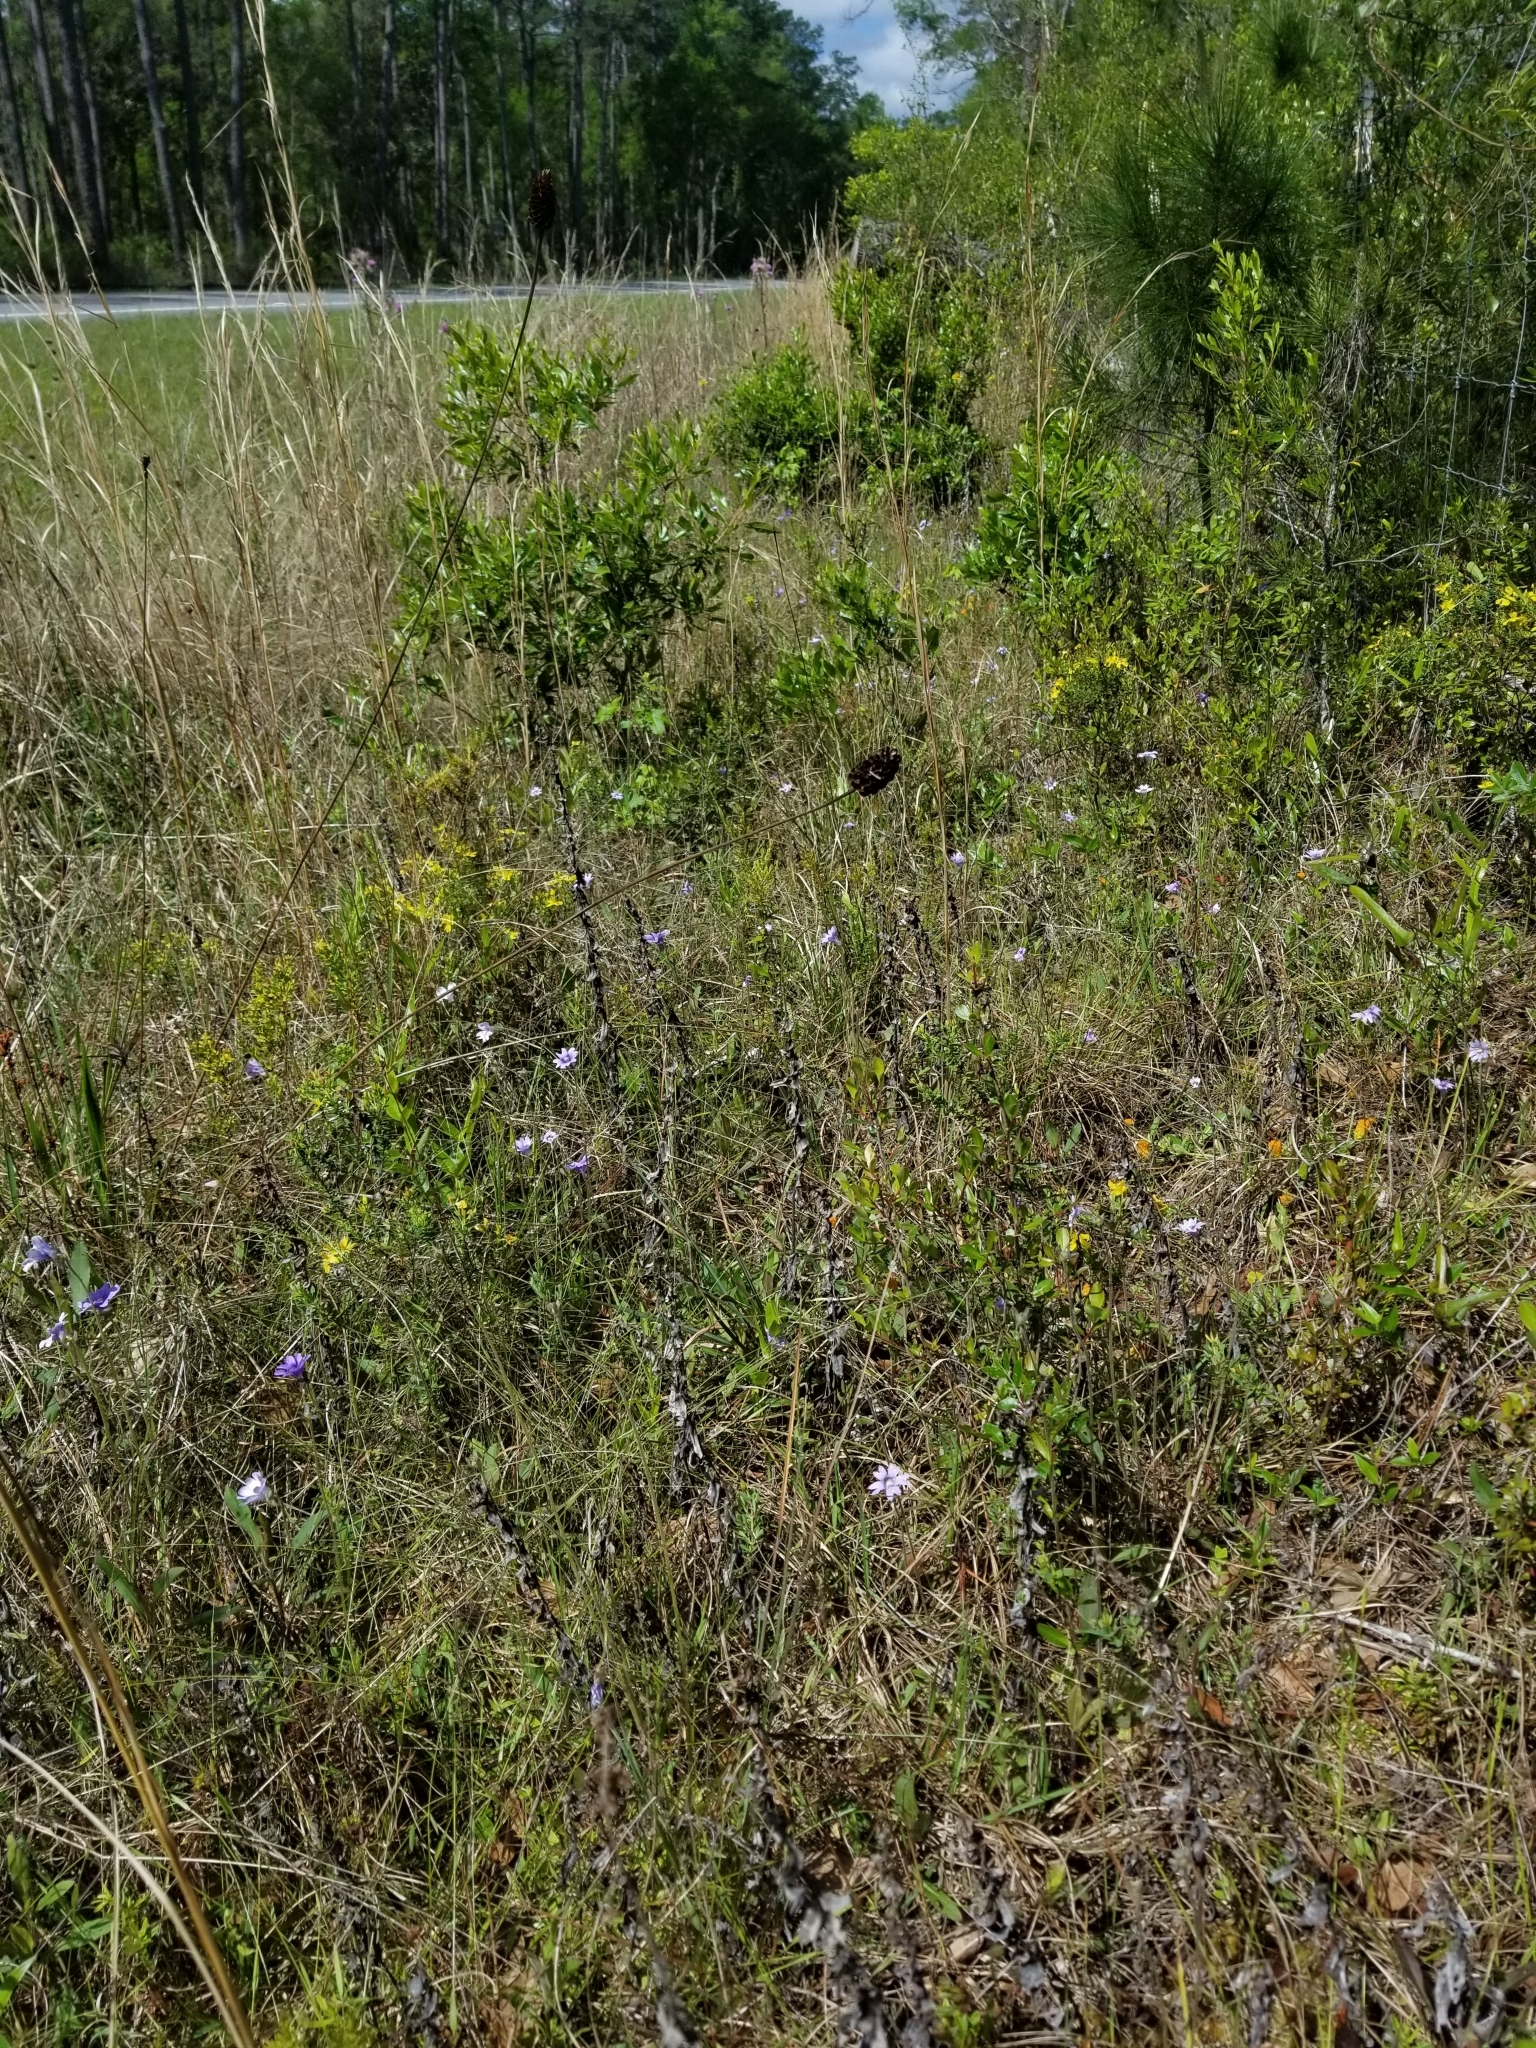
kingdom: Plantae
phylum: Tracheophyta
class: Magnoliopsida
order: Lamiales
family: Lentibulariaceae
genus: Pinguicula
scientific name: Pinguicula caerulea
